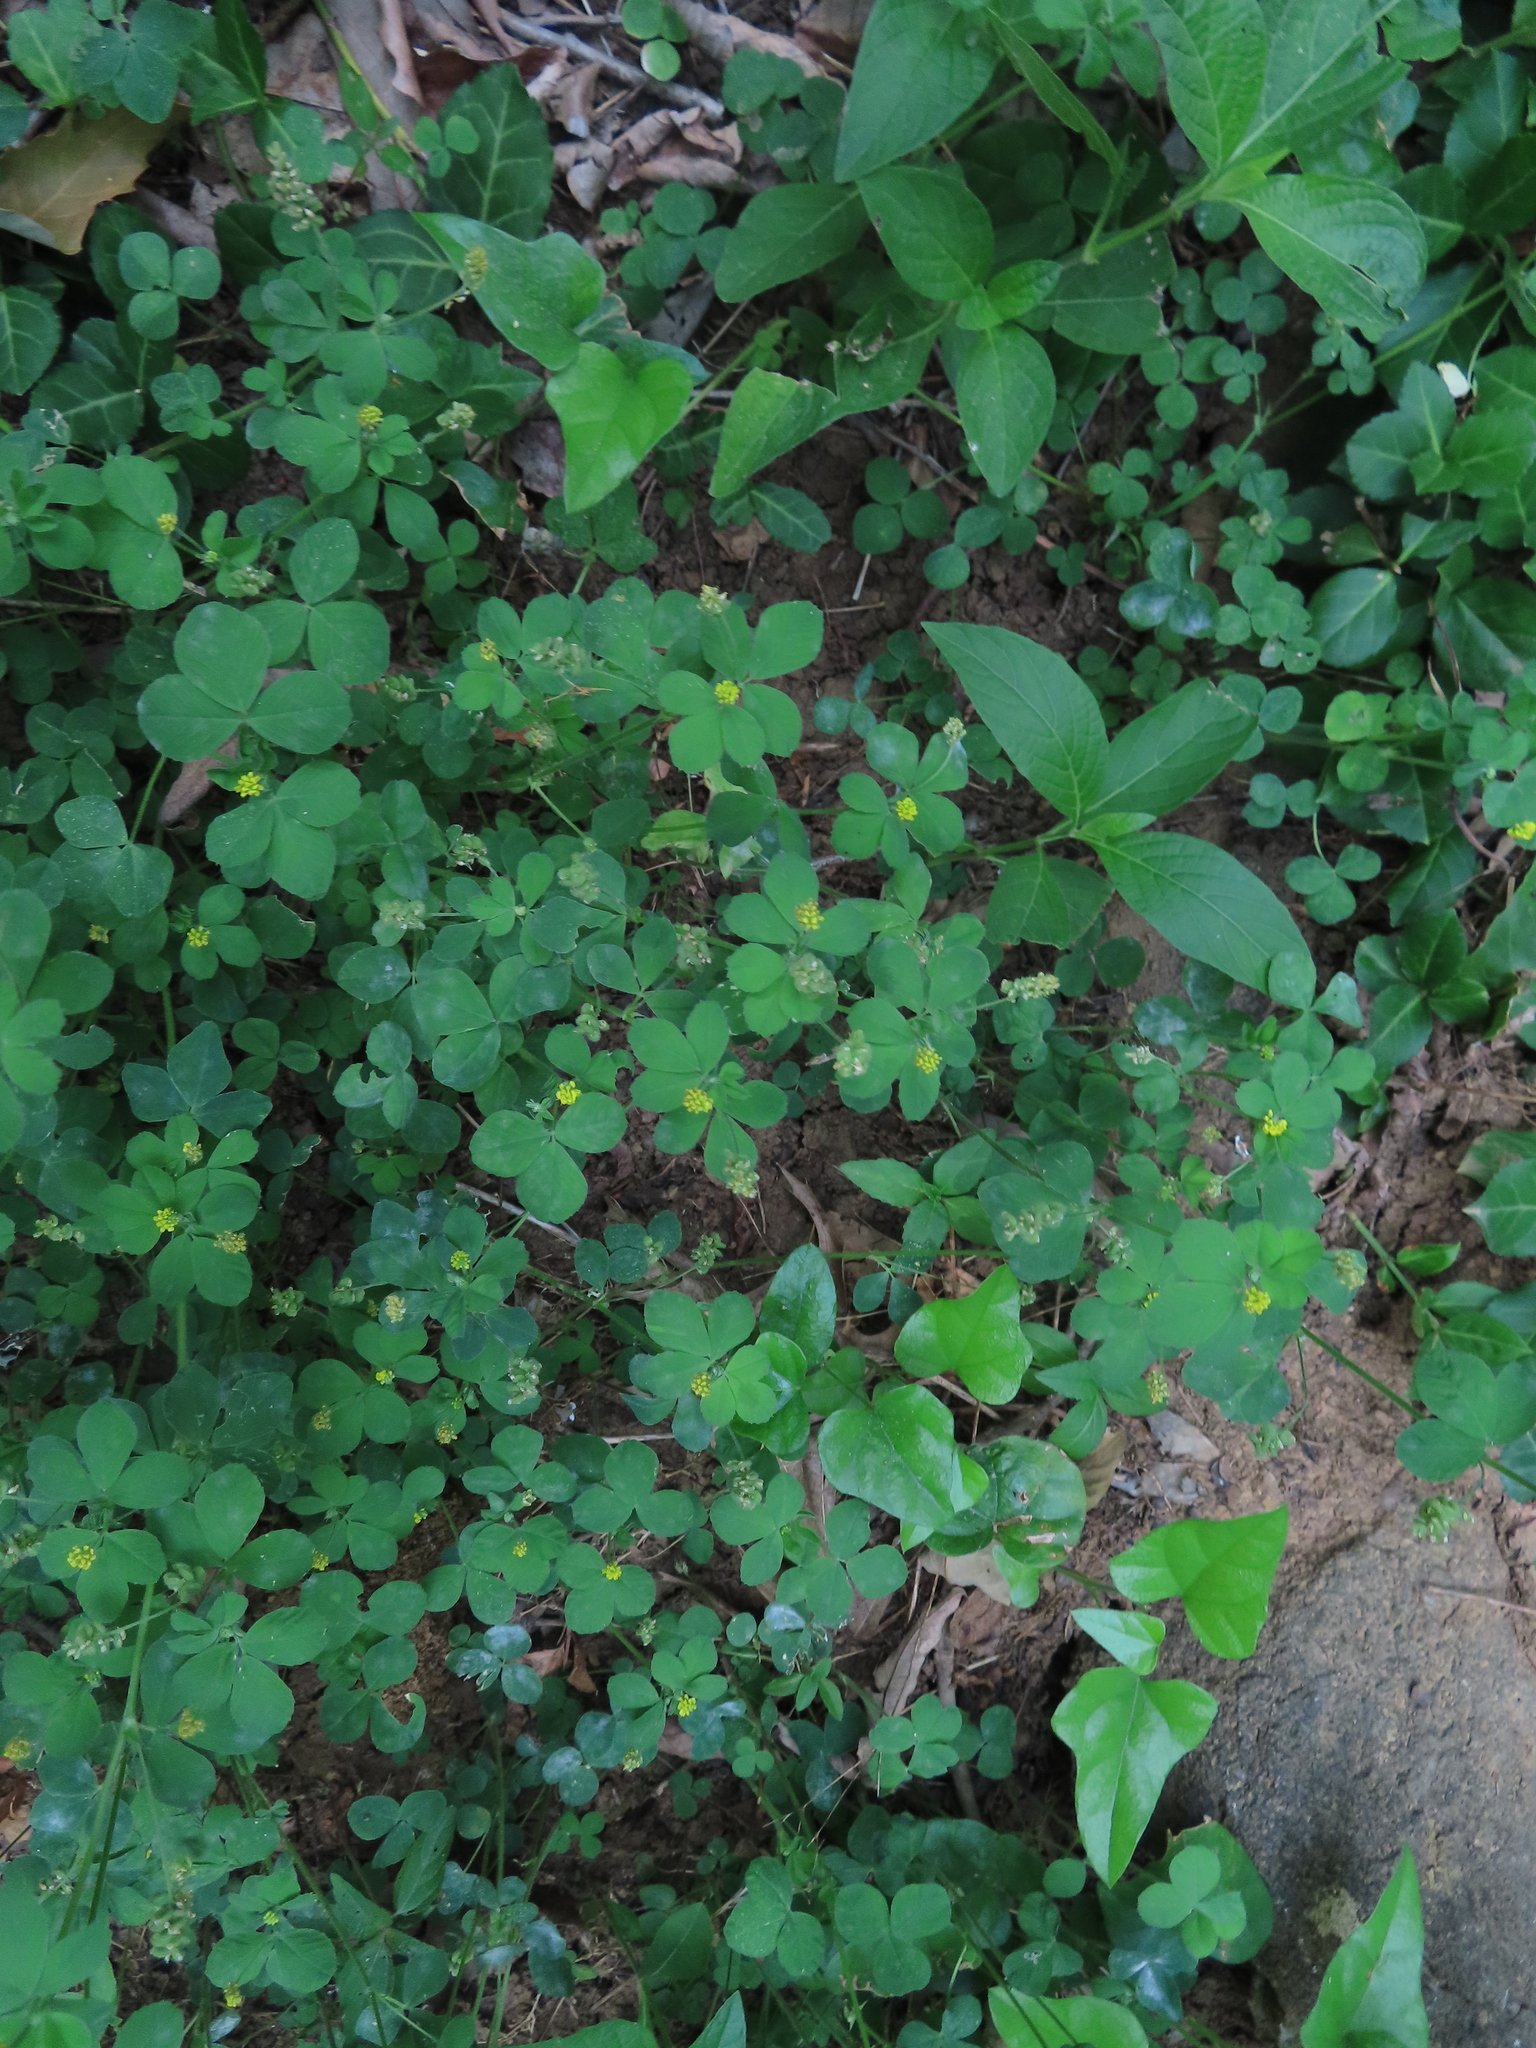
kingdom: Plantae
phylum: Tracheophyta
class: Magnoliopsida
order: Fabales
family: Fabaceae
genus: Medicago
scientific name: Medicago lupulina
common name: Black medick
